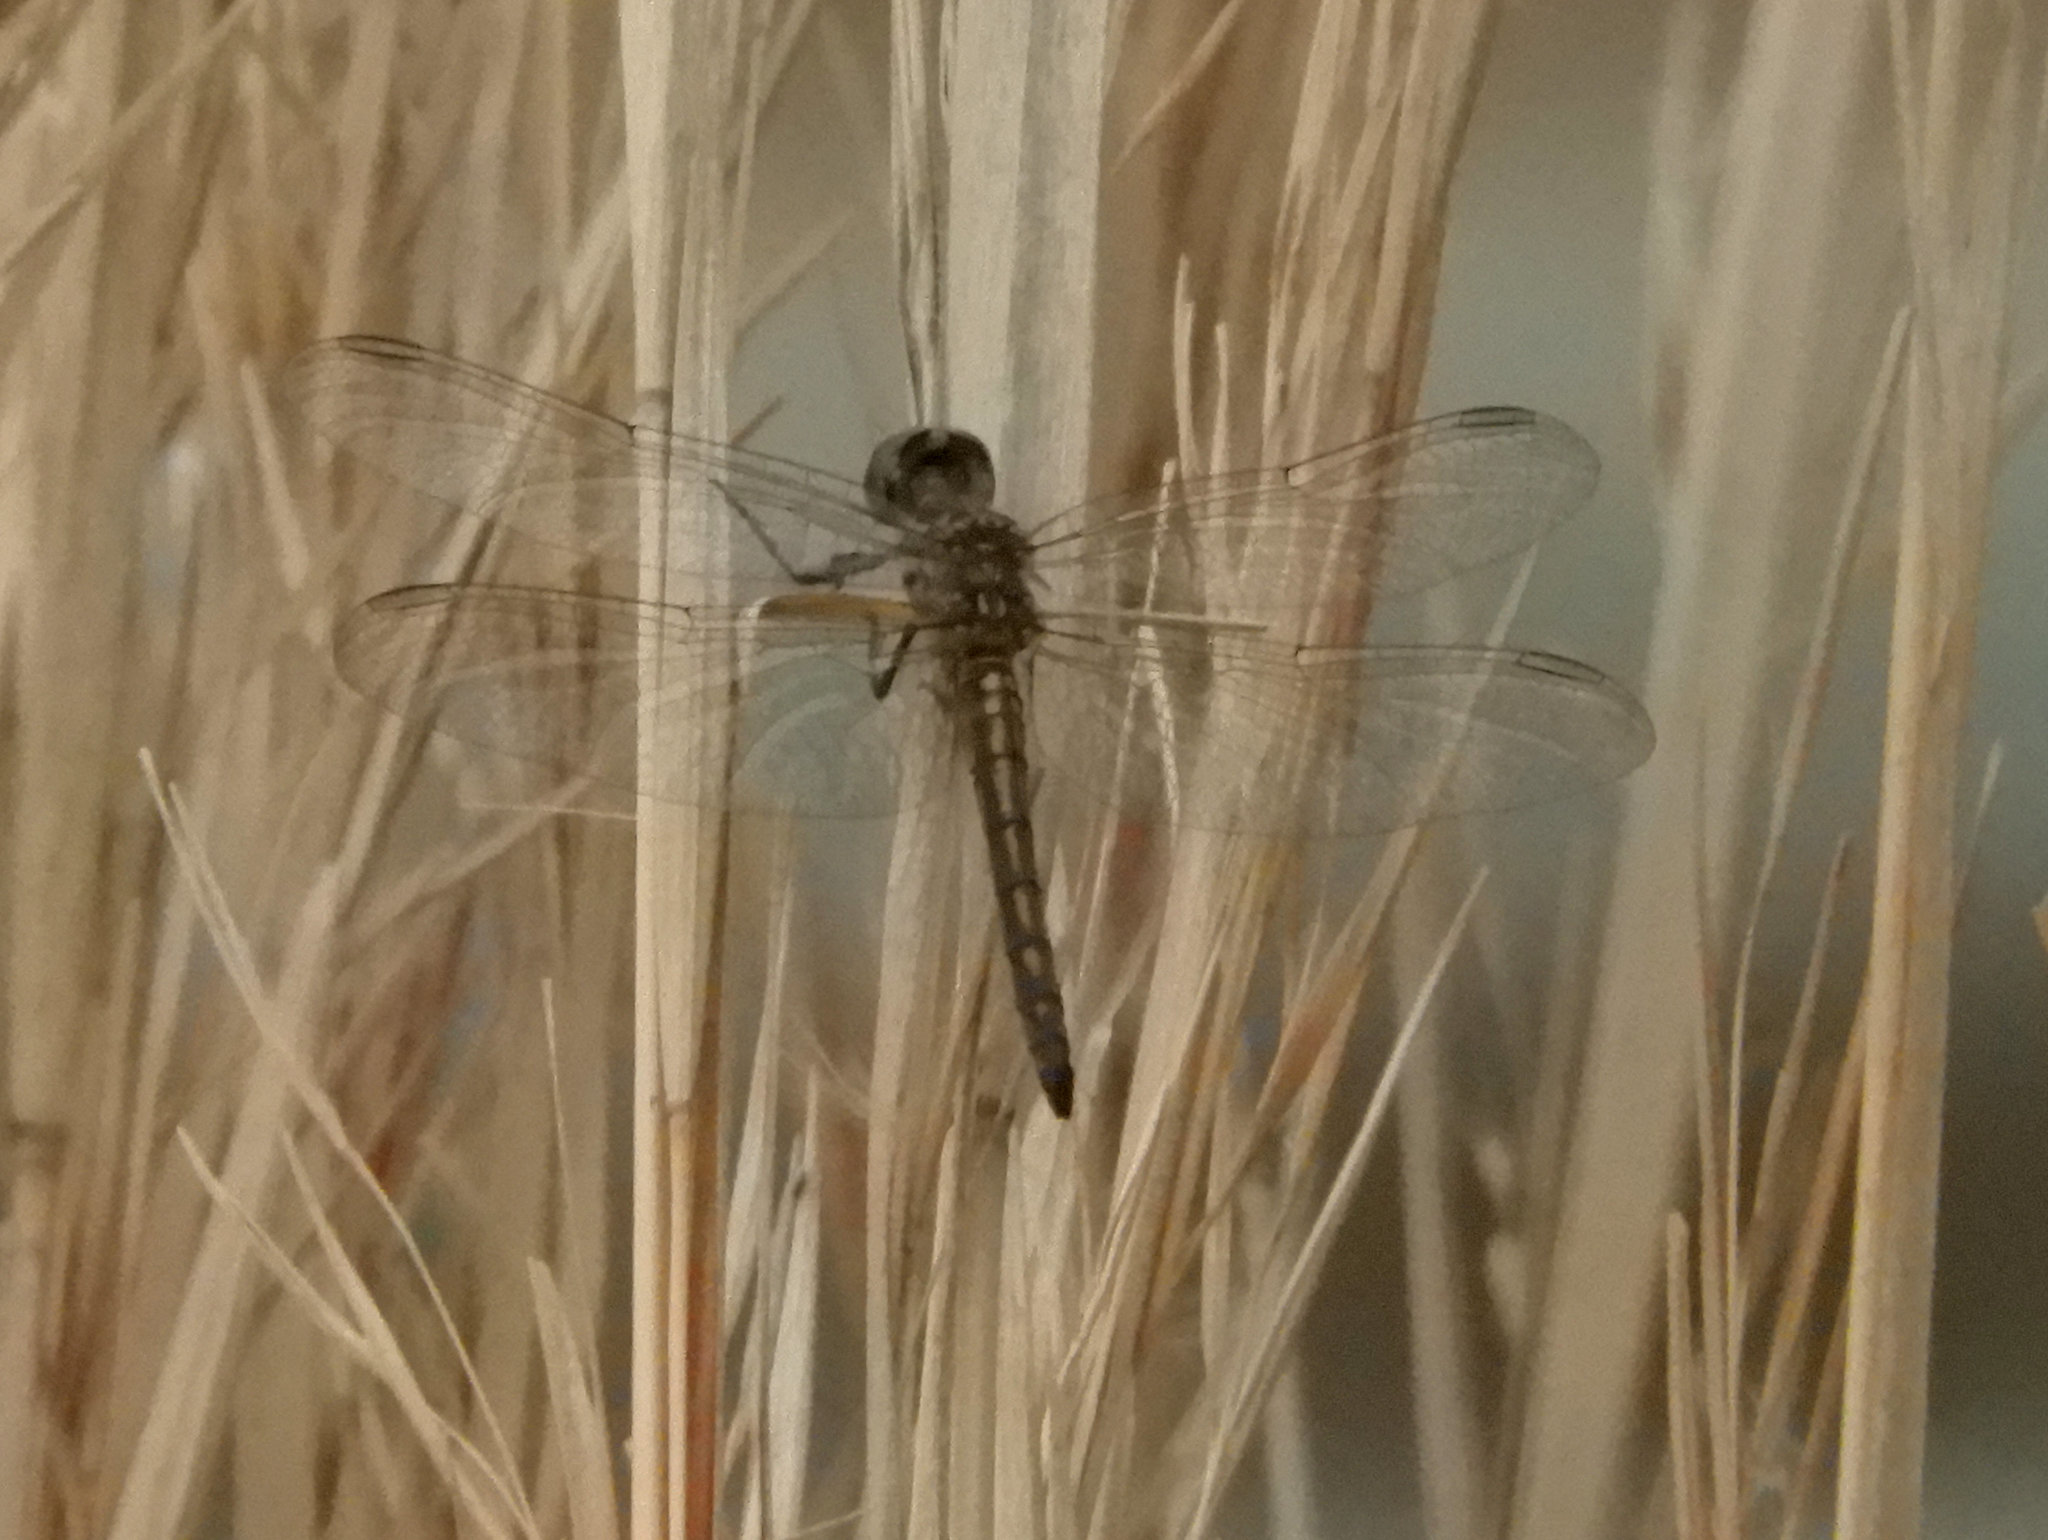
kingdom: Animalia
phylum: Arthropoda
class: Insecta
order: Odonata
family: Libellulidae
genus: Pachydiplax
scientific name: Pachydiplax longipennis
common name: Blue dasher
